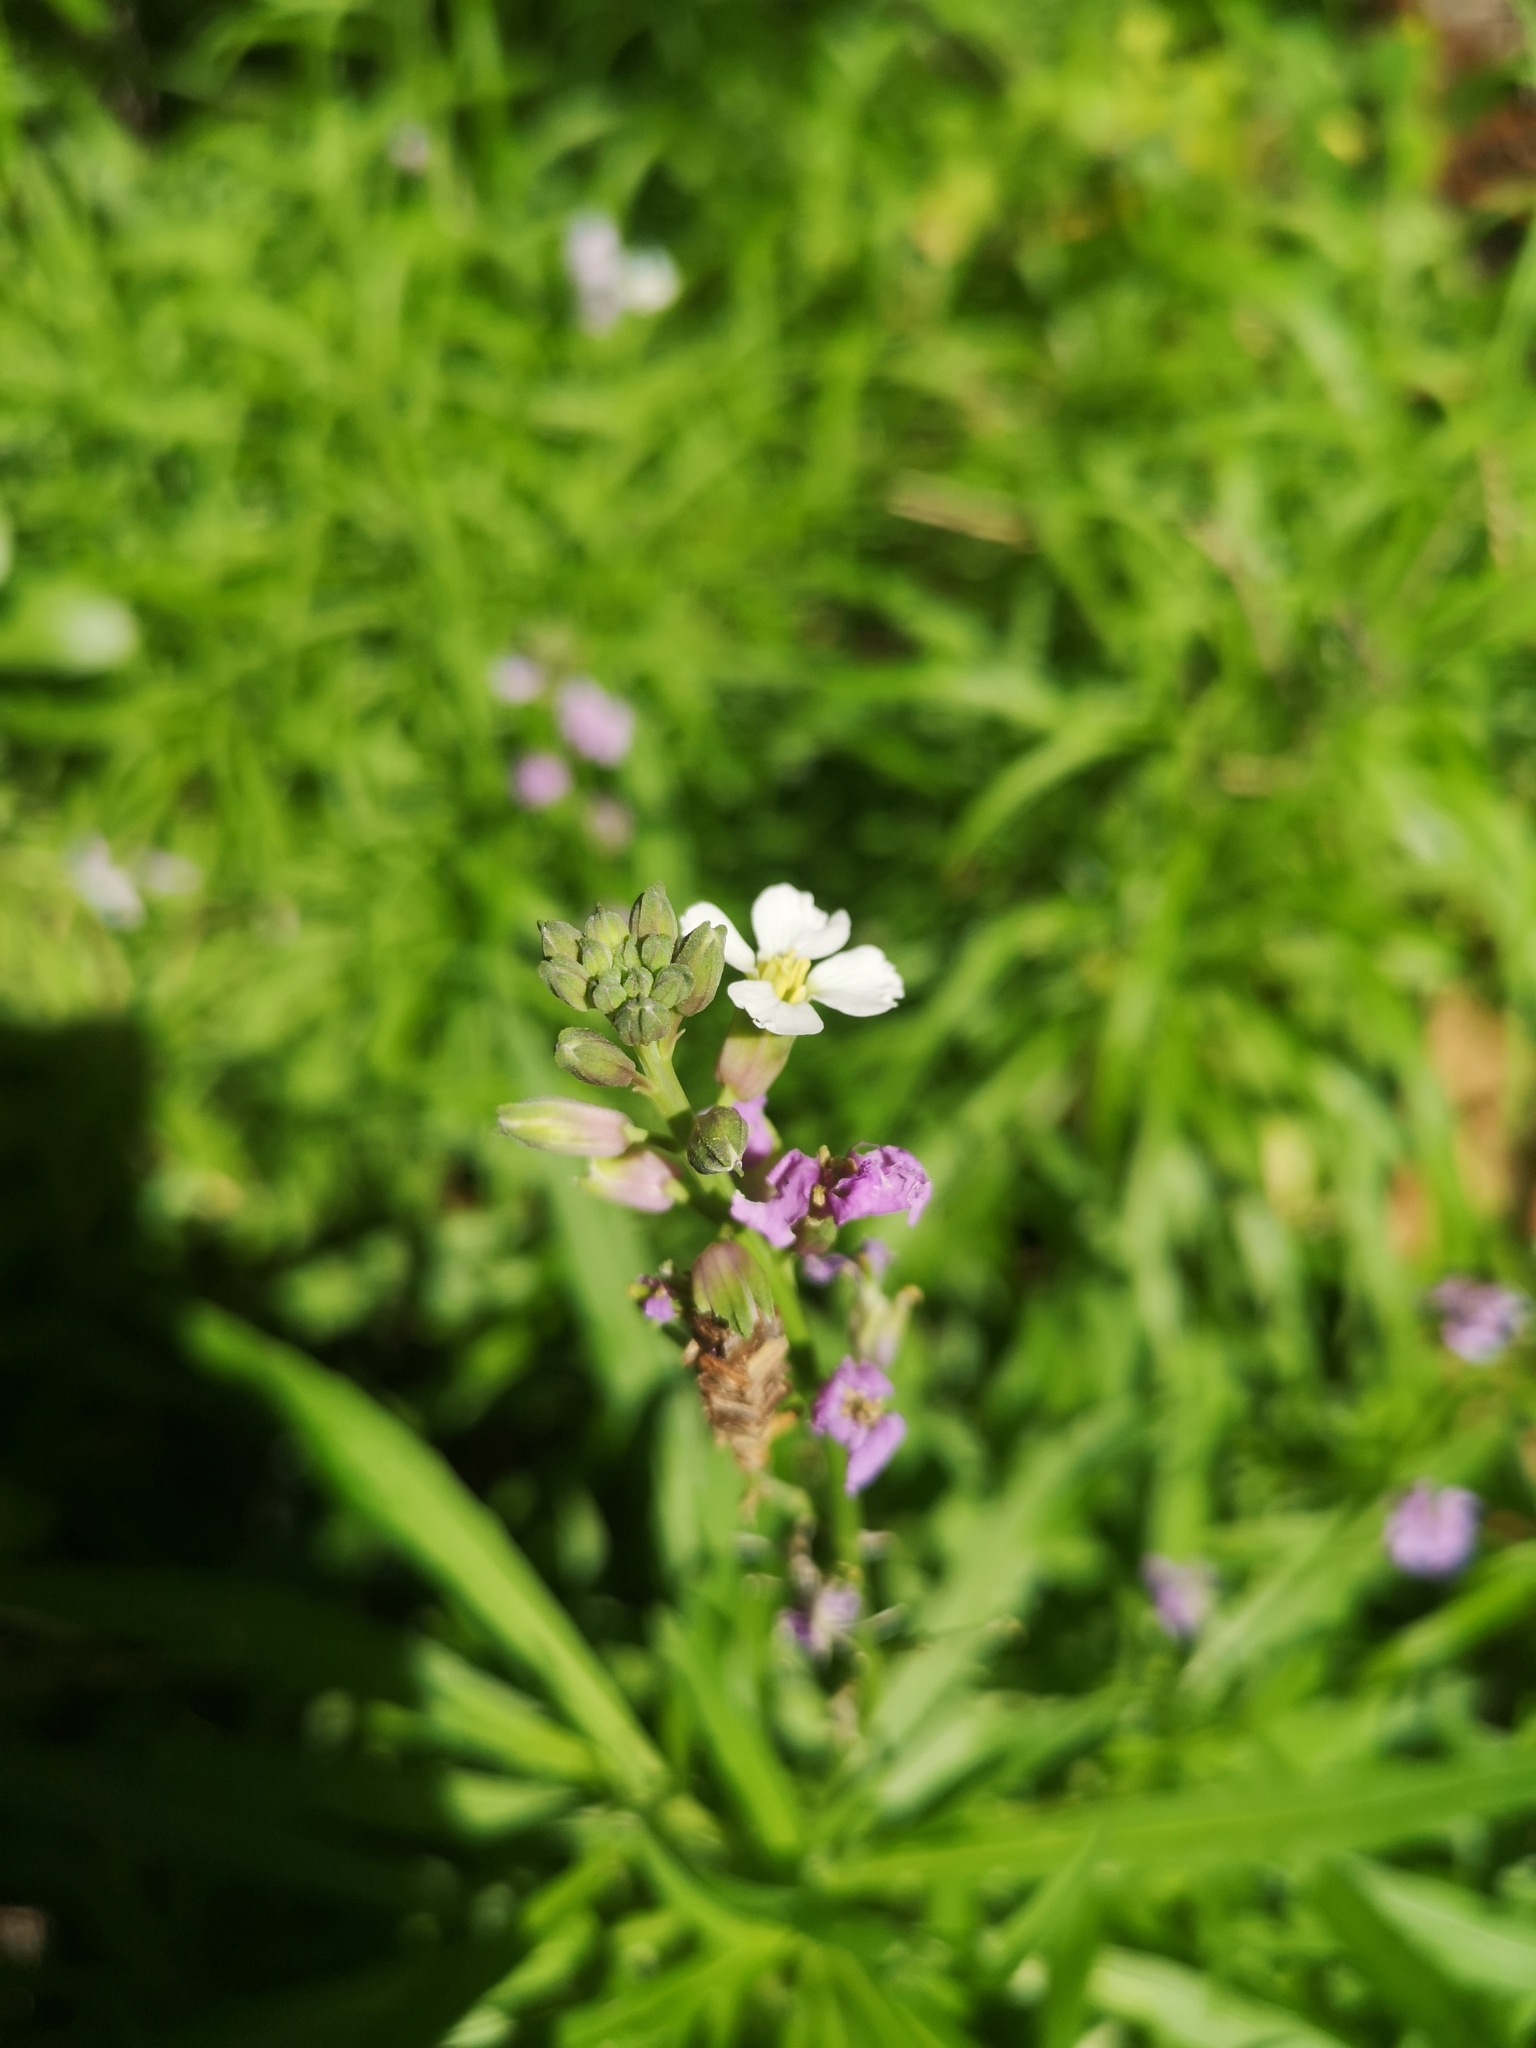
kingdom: Plantae
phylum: Tracheophyta
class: Magnoliopsida
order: Brassicales
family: Brassicaceae
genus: Erysimum
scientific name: Erysimum bicolor
